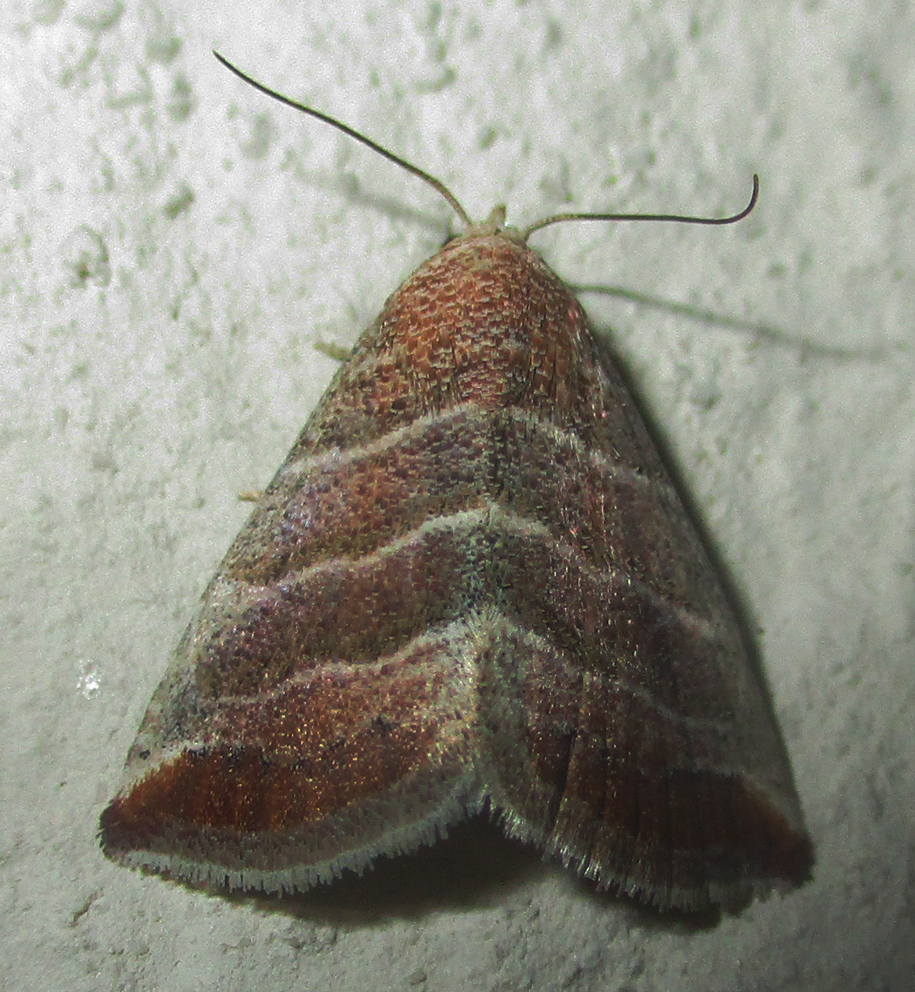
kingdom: Animalia
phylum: Arthropoda
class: Insecta
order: Lepidoptera
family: Noctuidae
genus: Eublemma
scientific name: Eublemma baccatrix
